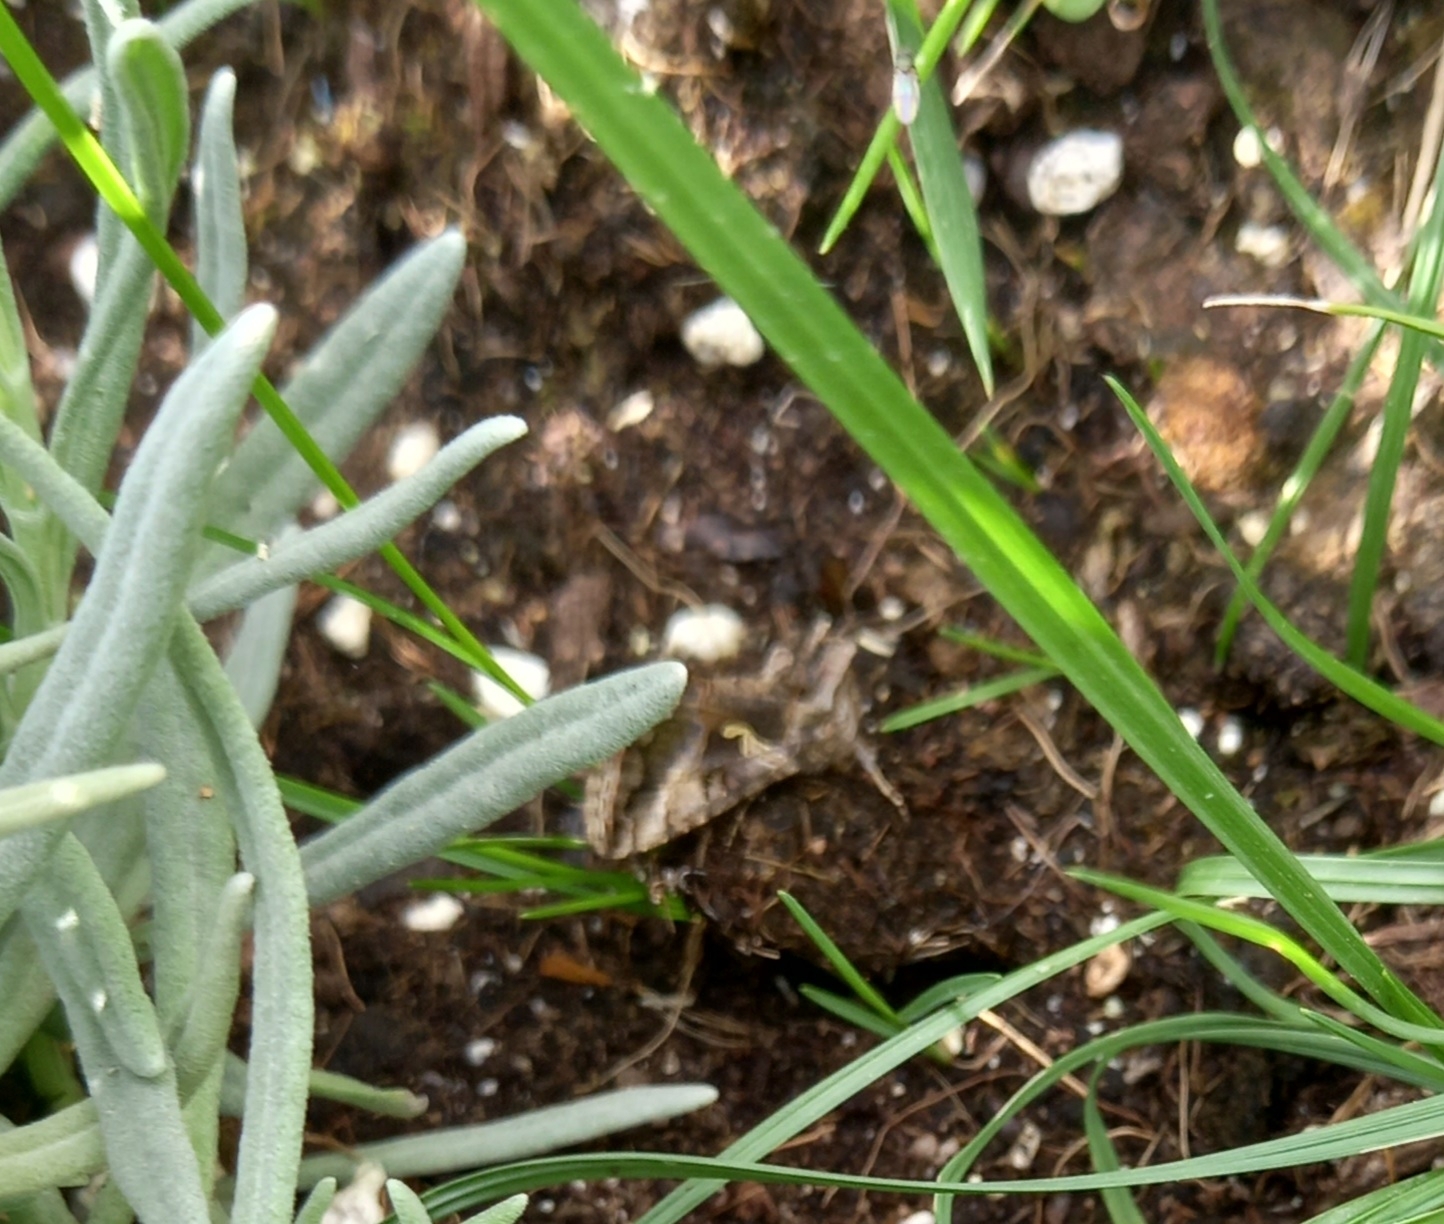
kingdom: Animalia
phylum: Arthropoda
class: Insecta
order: Lepidoptera
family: Noctuidae
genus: Autographa
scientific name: Autographa gamma
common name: Silver y
